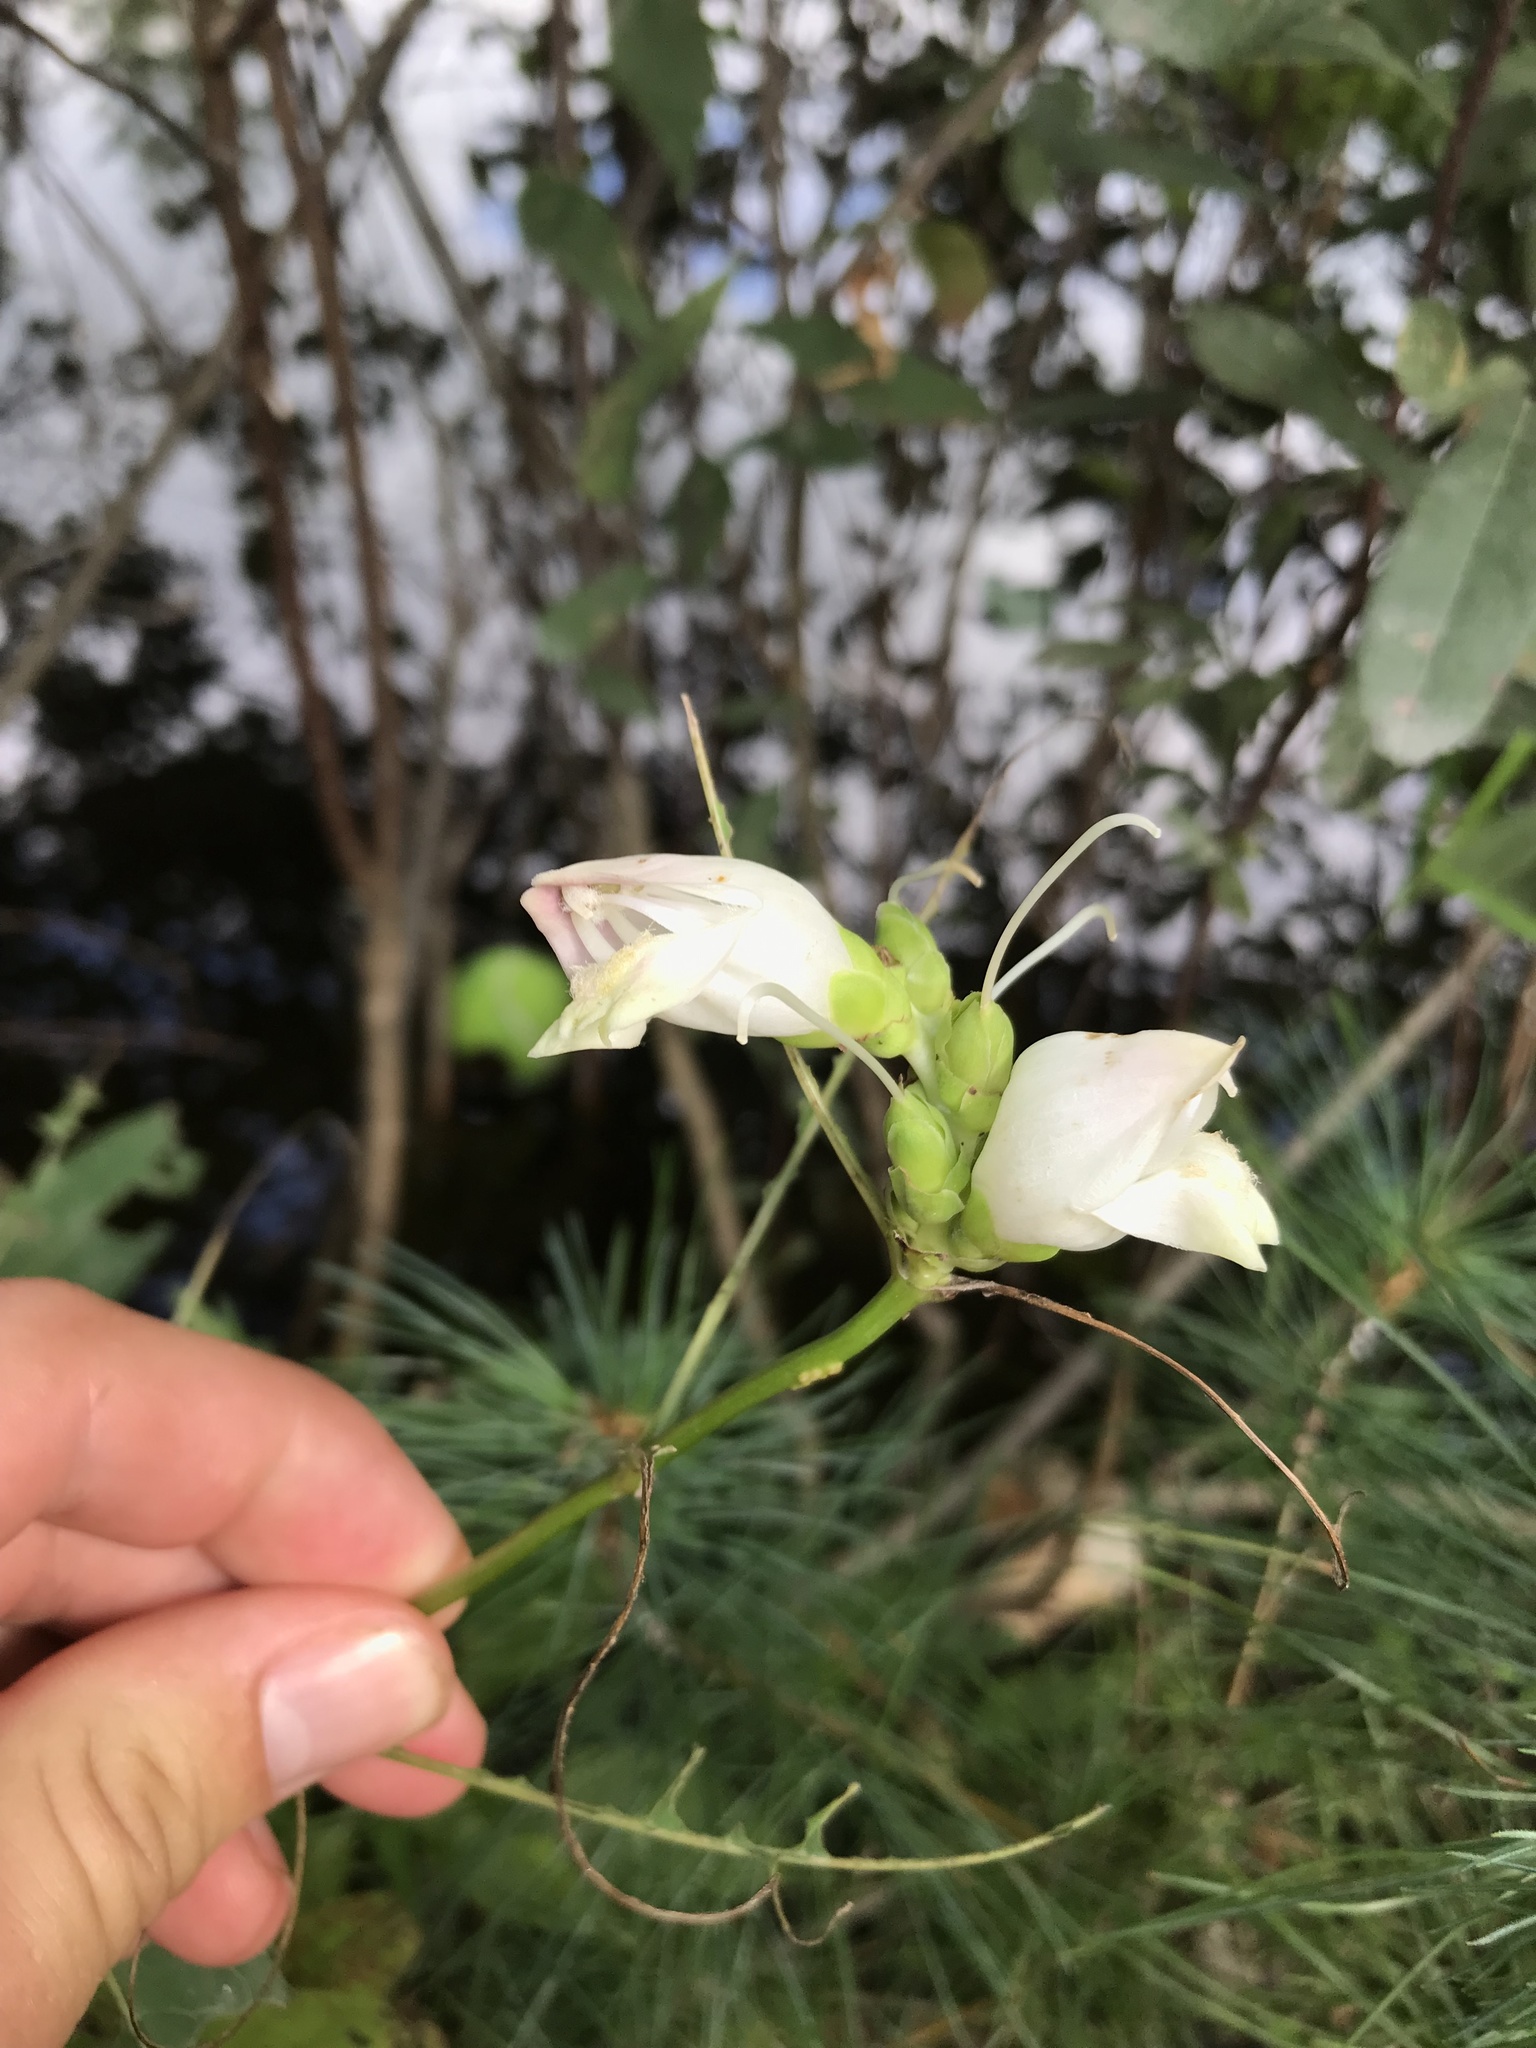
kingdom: Plantae
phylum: Tracheophyta
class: Magnoliopsida
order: Lamiales
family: Plantaginaceae
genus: Chelone
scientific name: Chelone glabra
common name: Snakehead
